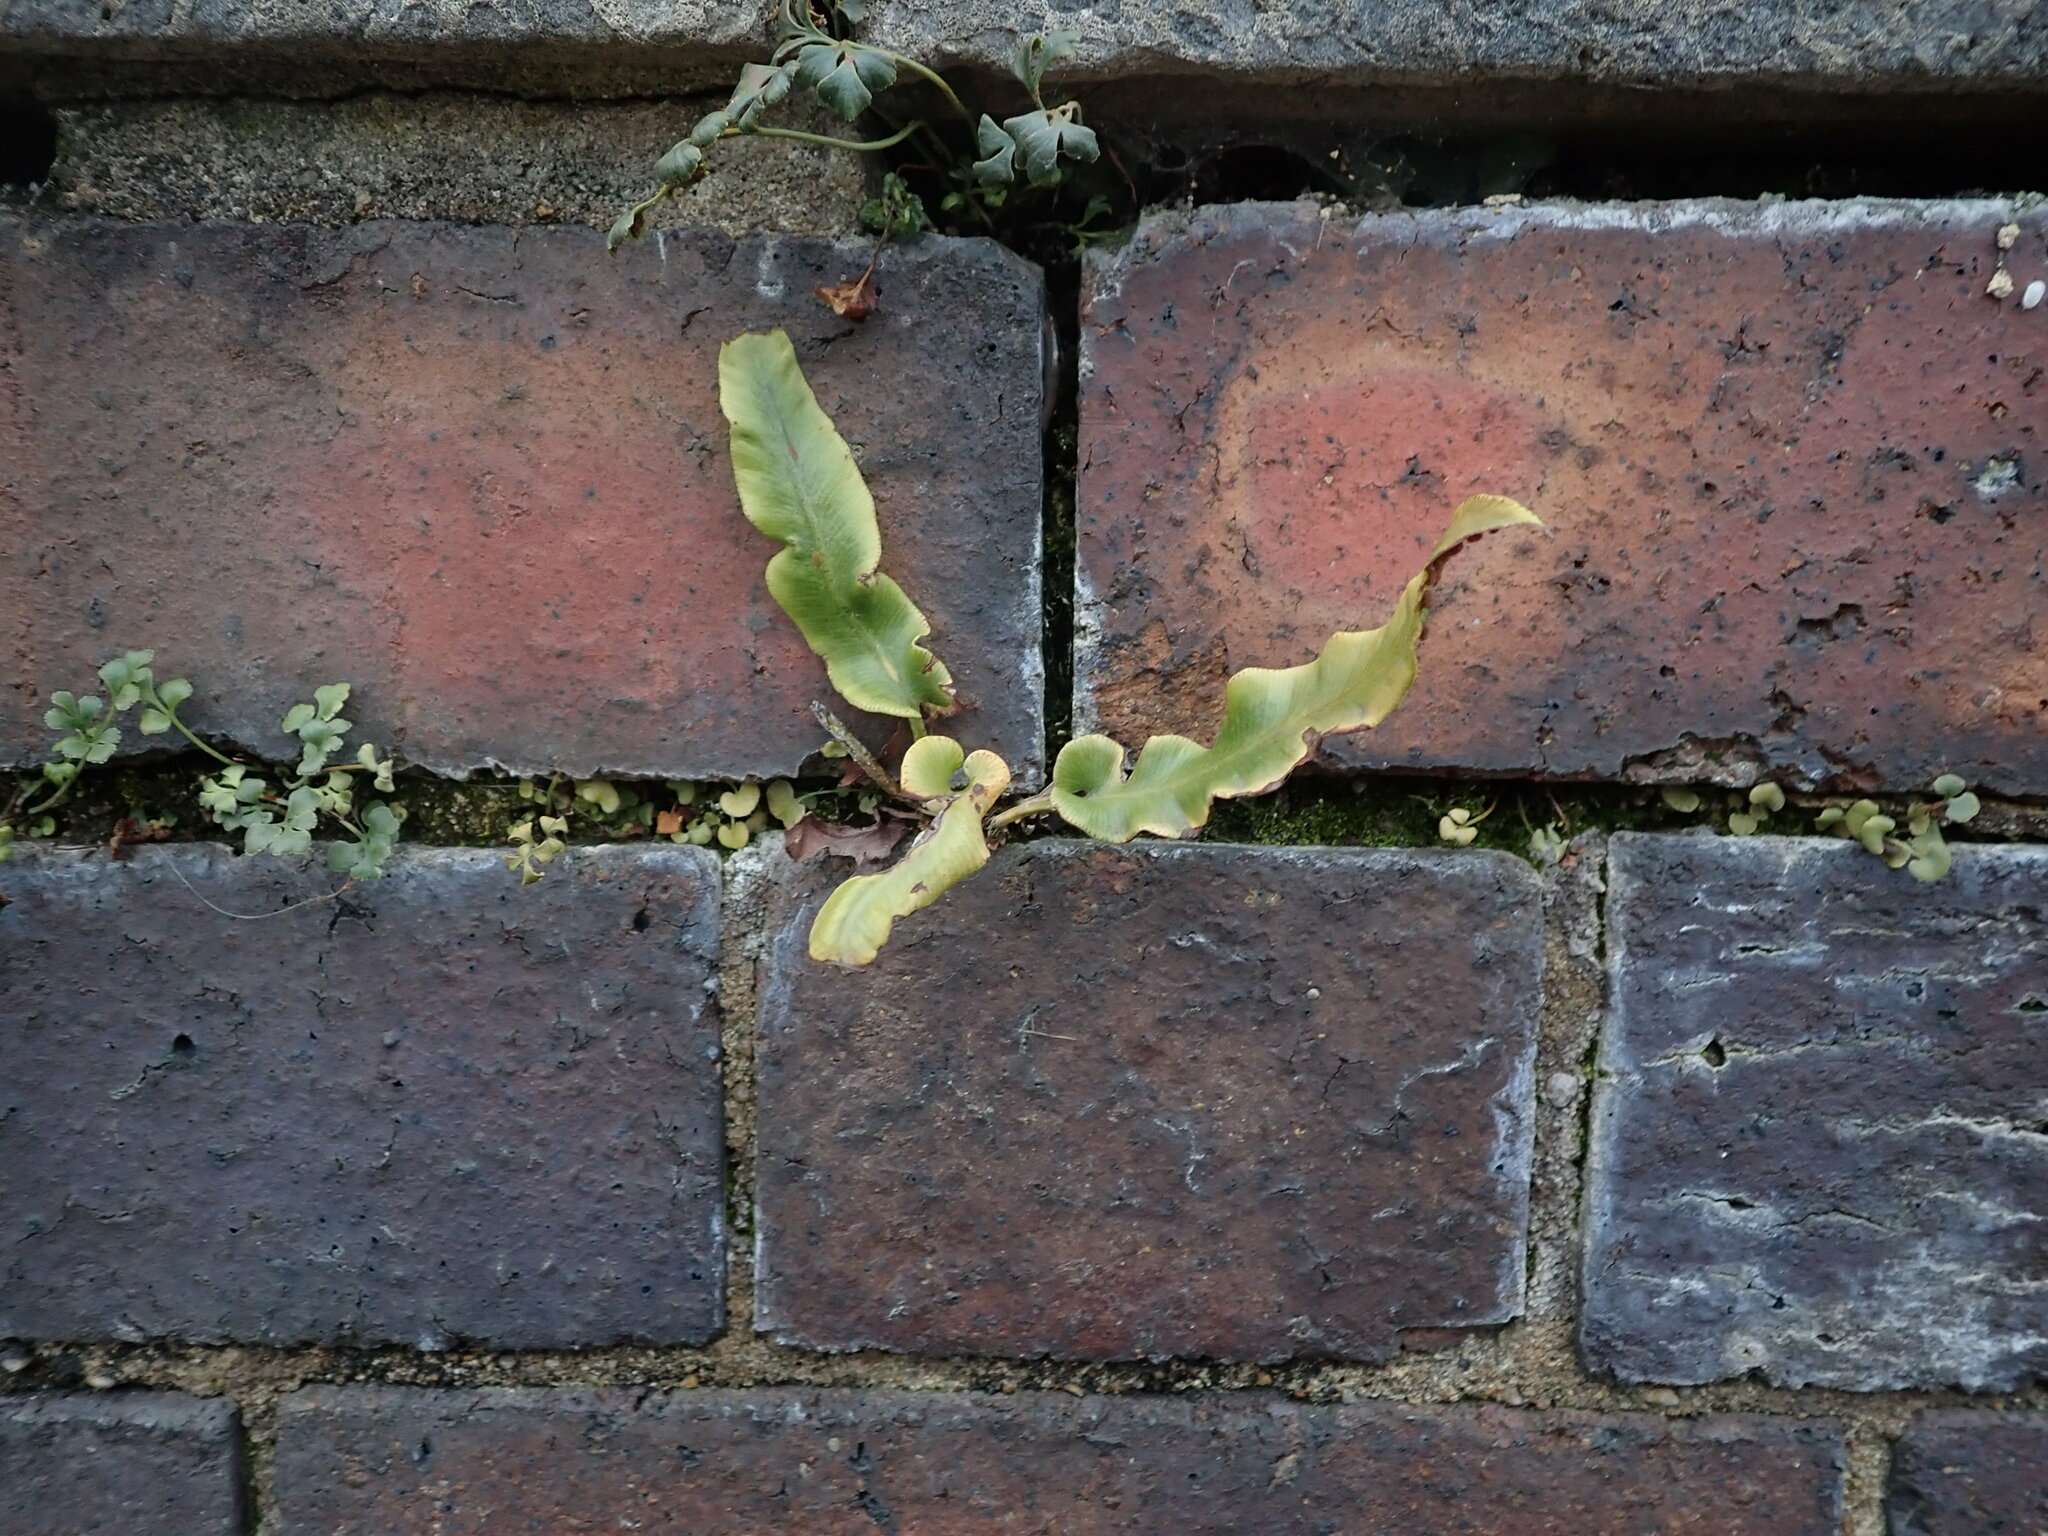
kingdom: Plantae
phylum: Tracheophyta
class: Polypodiopsida
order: Polypodiales
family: Aspleniaceae
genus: Asplenium
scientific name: Asplenium scolopendrium
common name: Hart's-tongue fern
